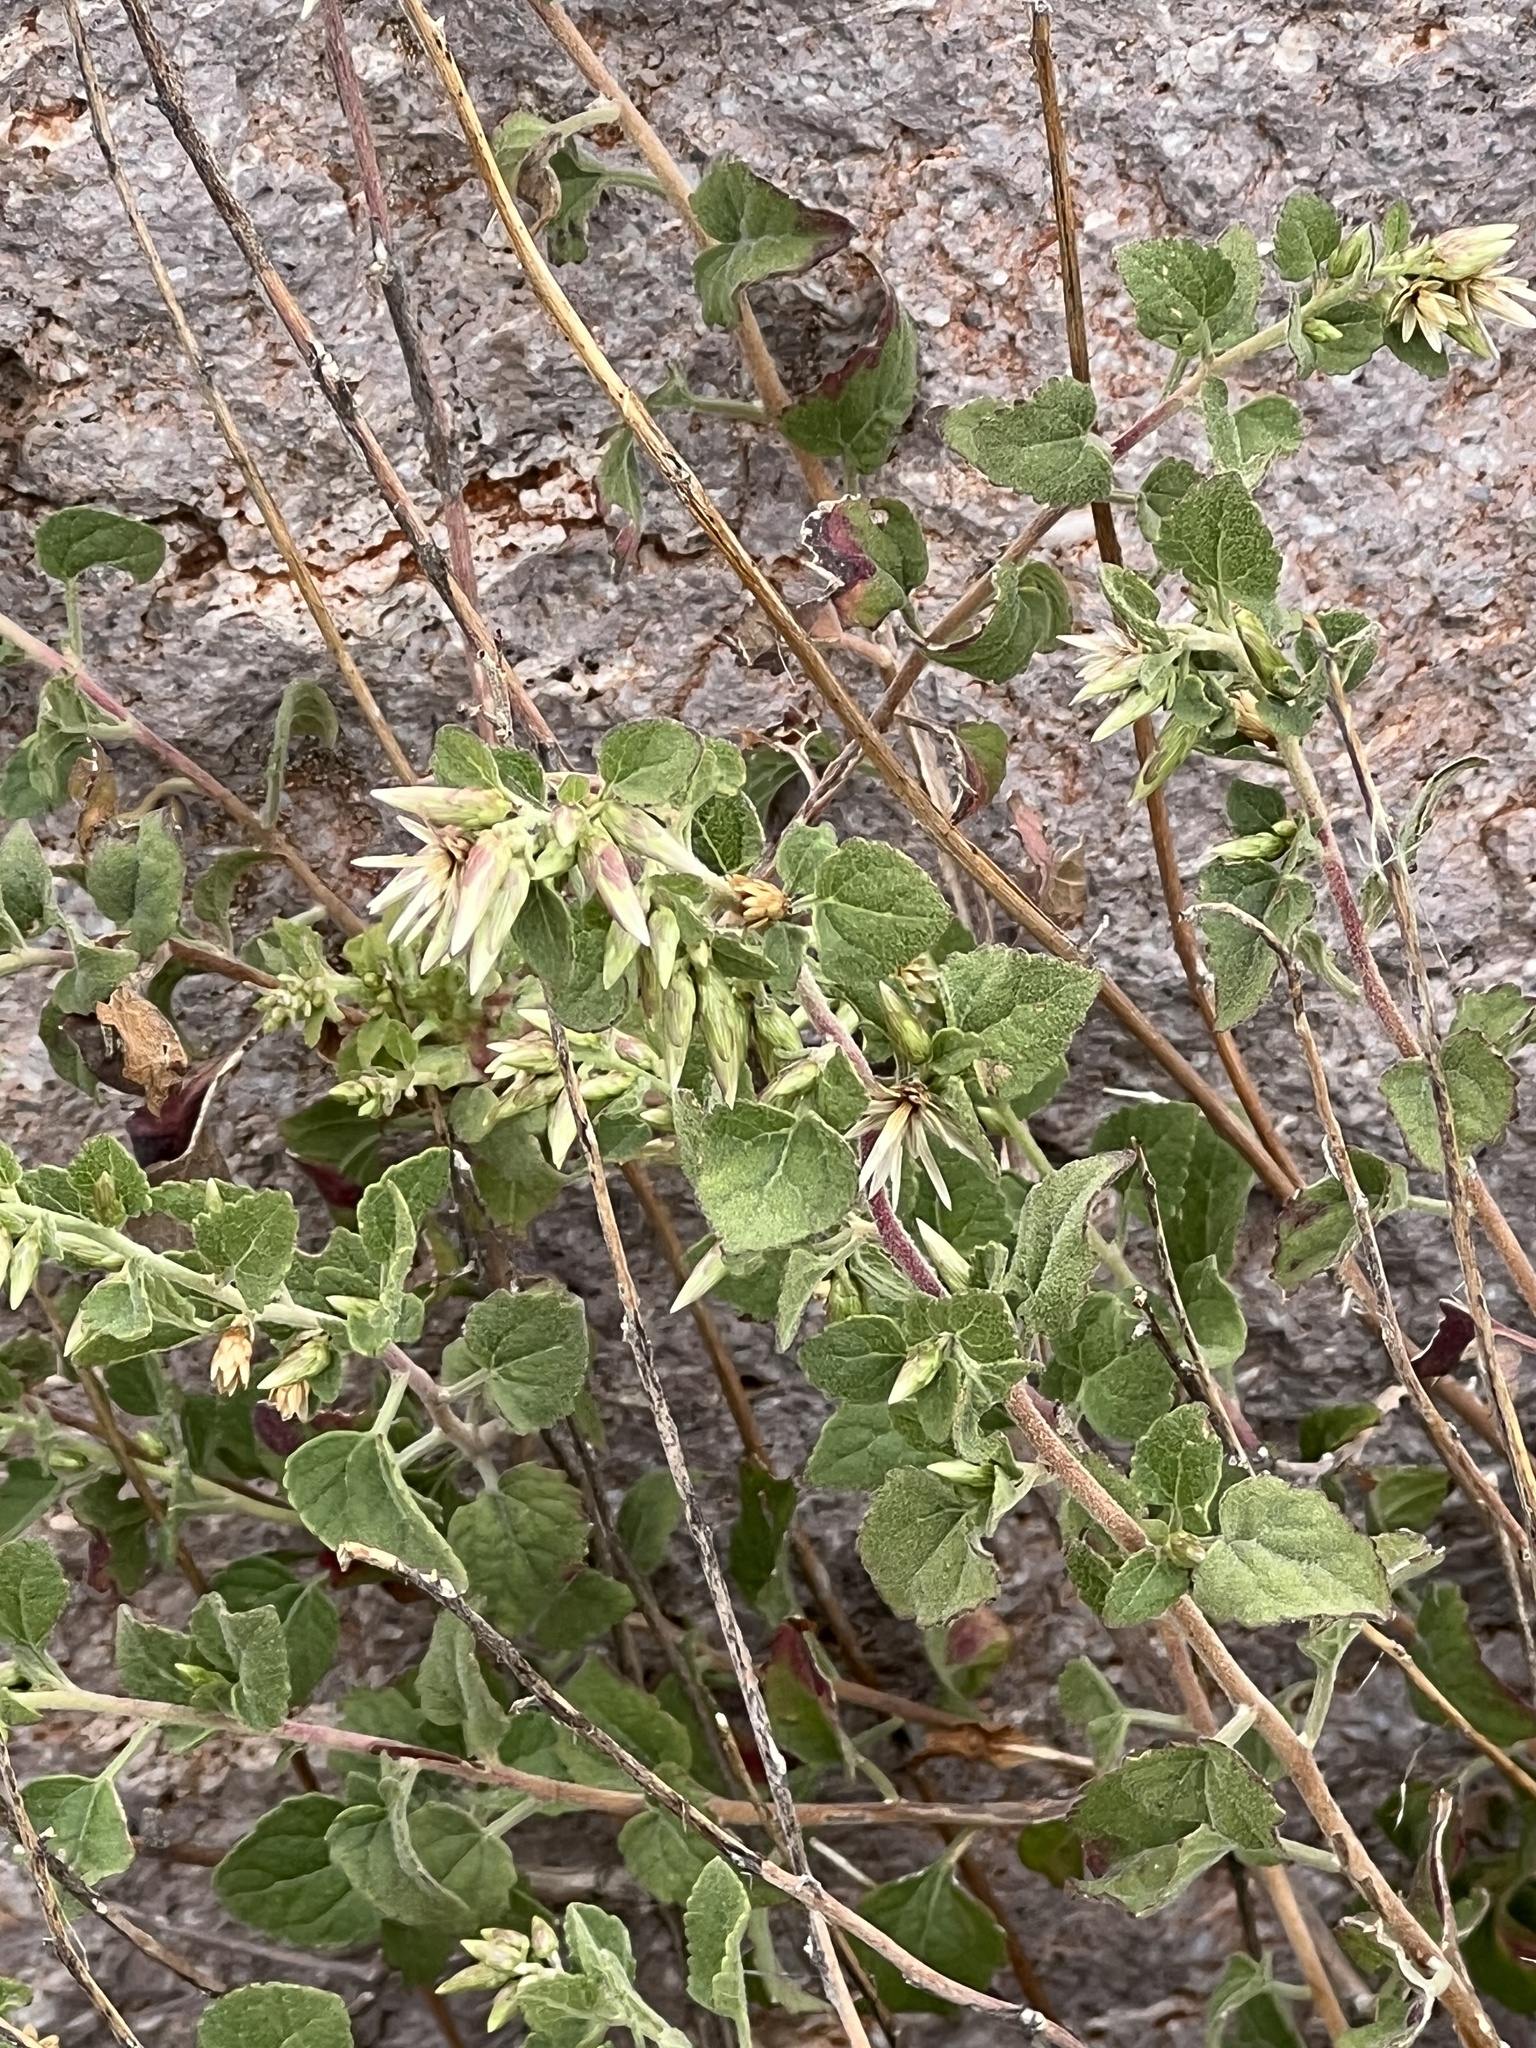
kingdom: Plantae
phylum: Tracheophyta
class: Magnoliopsida
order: Asterales
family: Asteraceae
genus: Brickellia
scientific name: Brickellia californica
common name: California brickellbush
